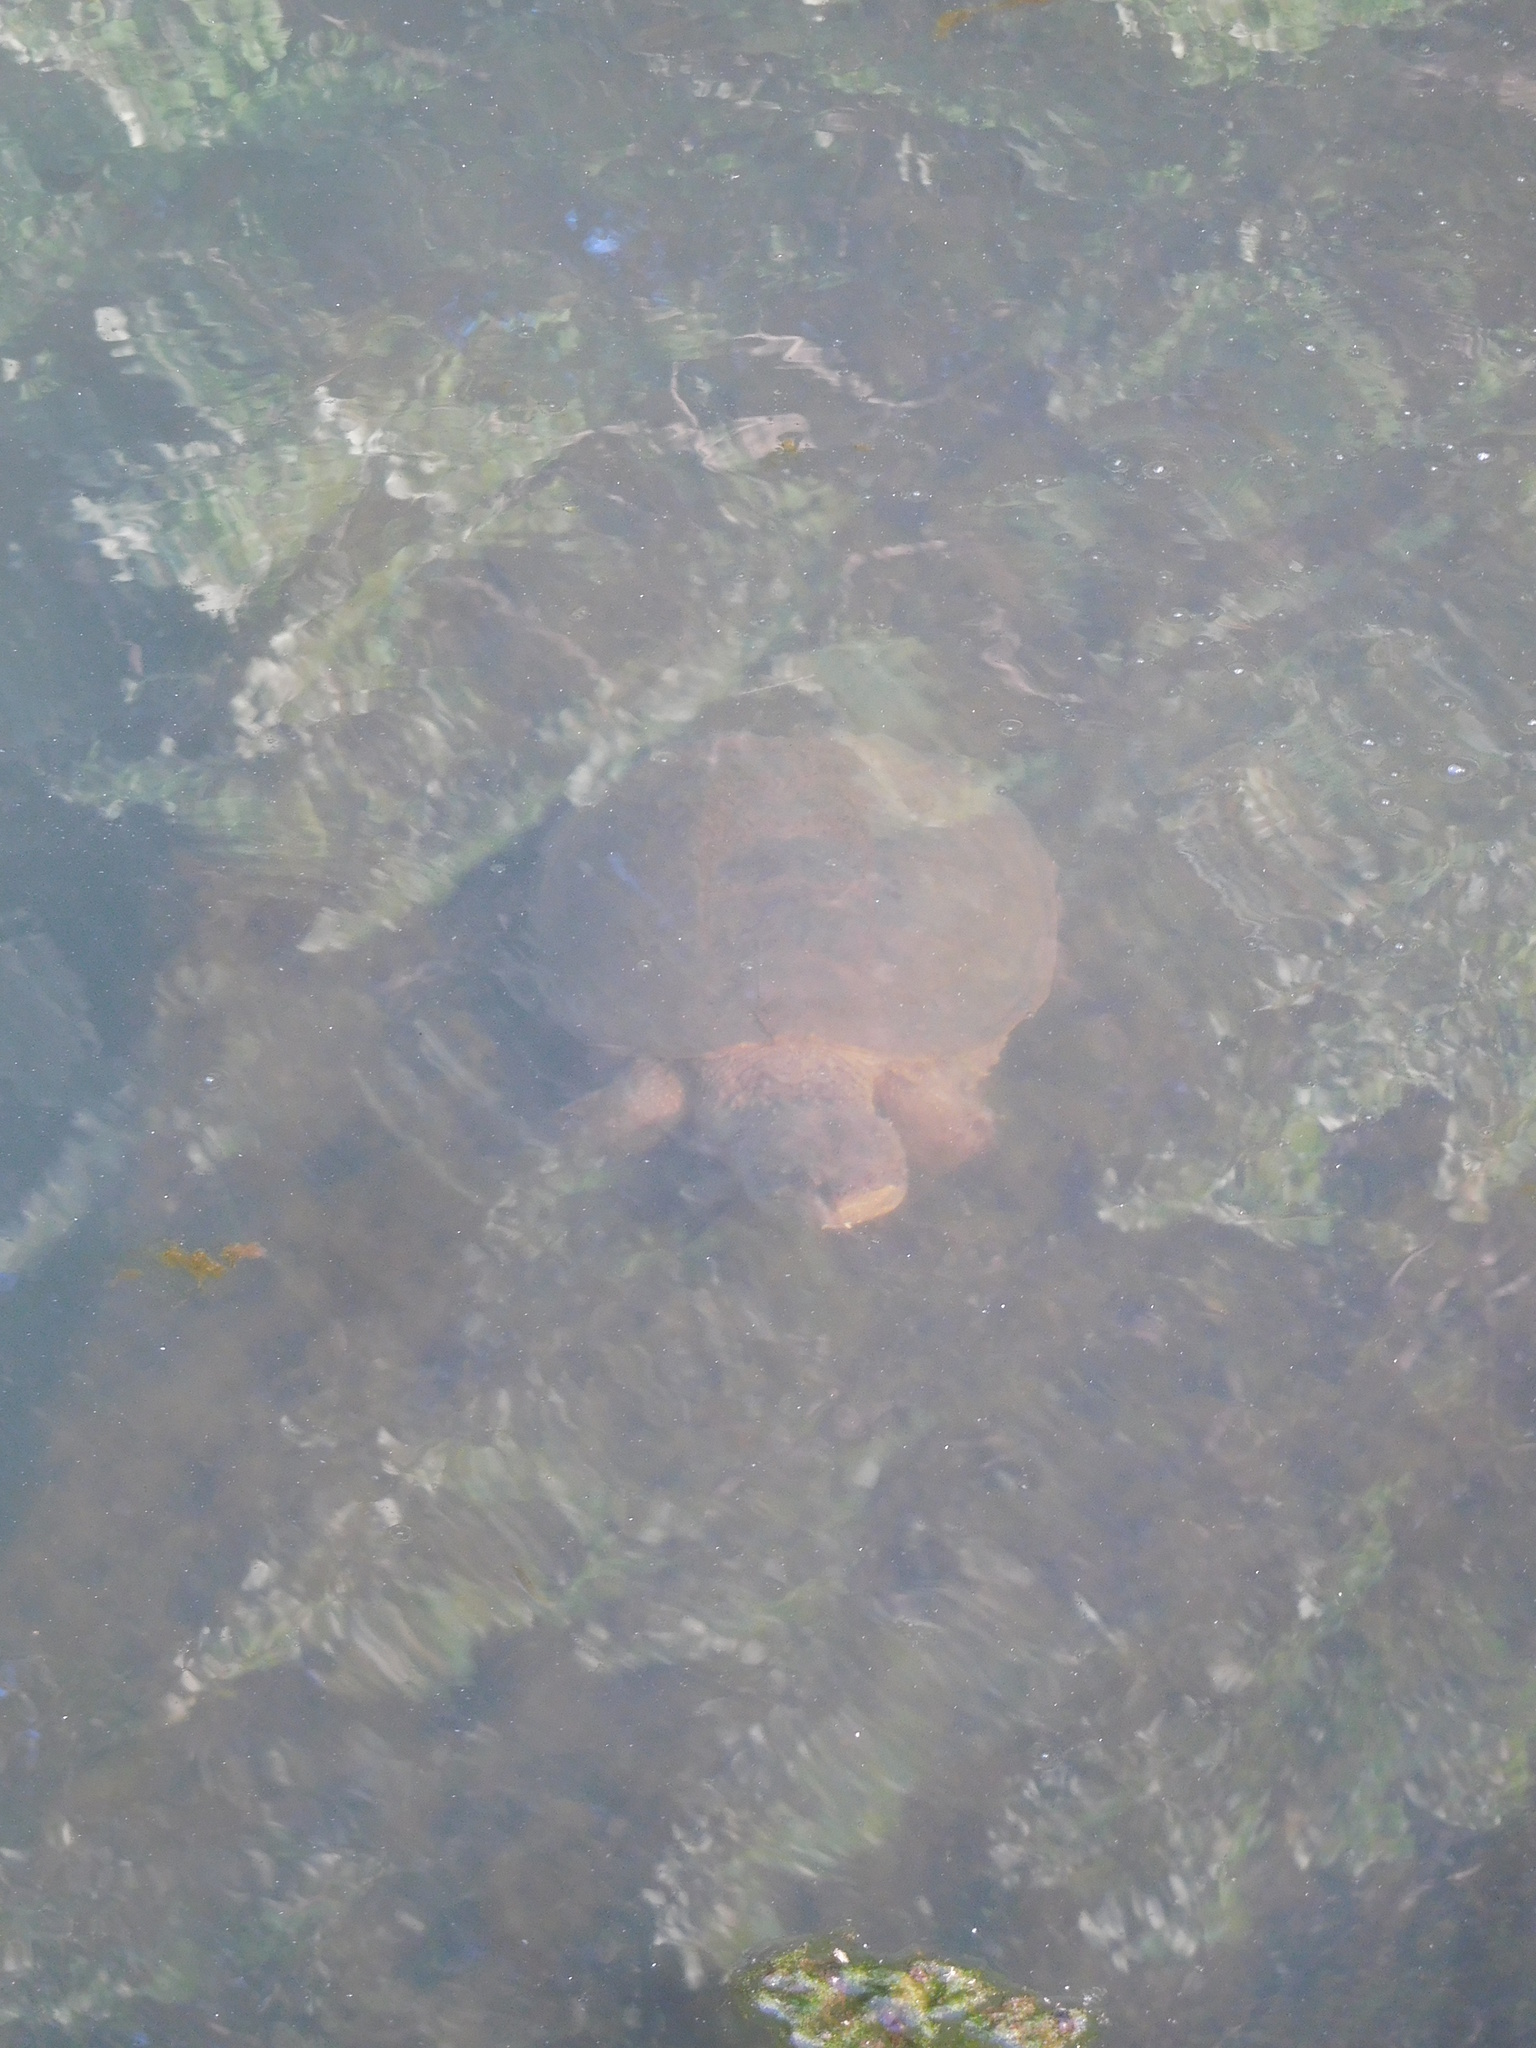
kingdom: Animalia
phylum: Chordata
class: Testudines
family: Chelydridae
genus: Chelydra
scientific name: Chelydra serpentina
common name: Common snapping turtle
